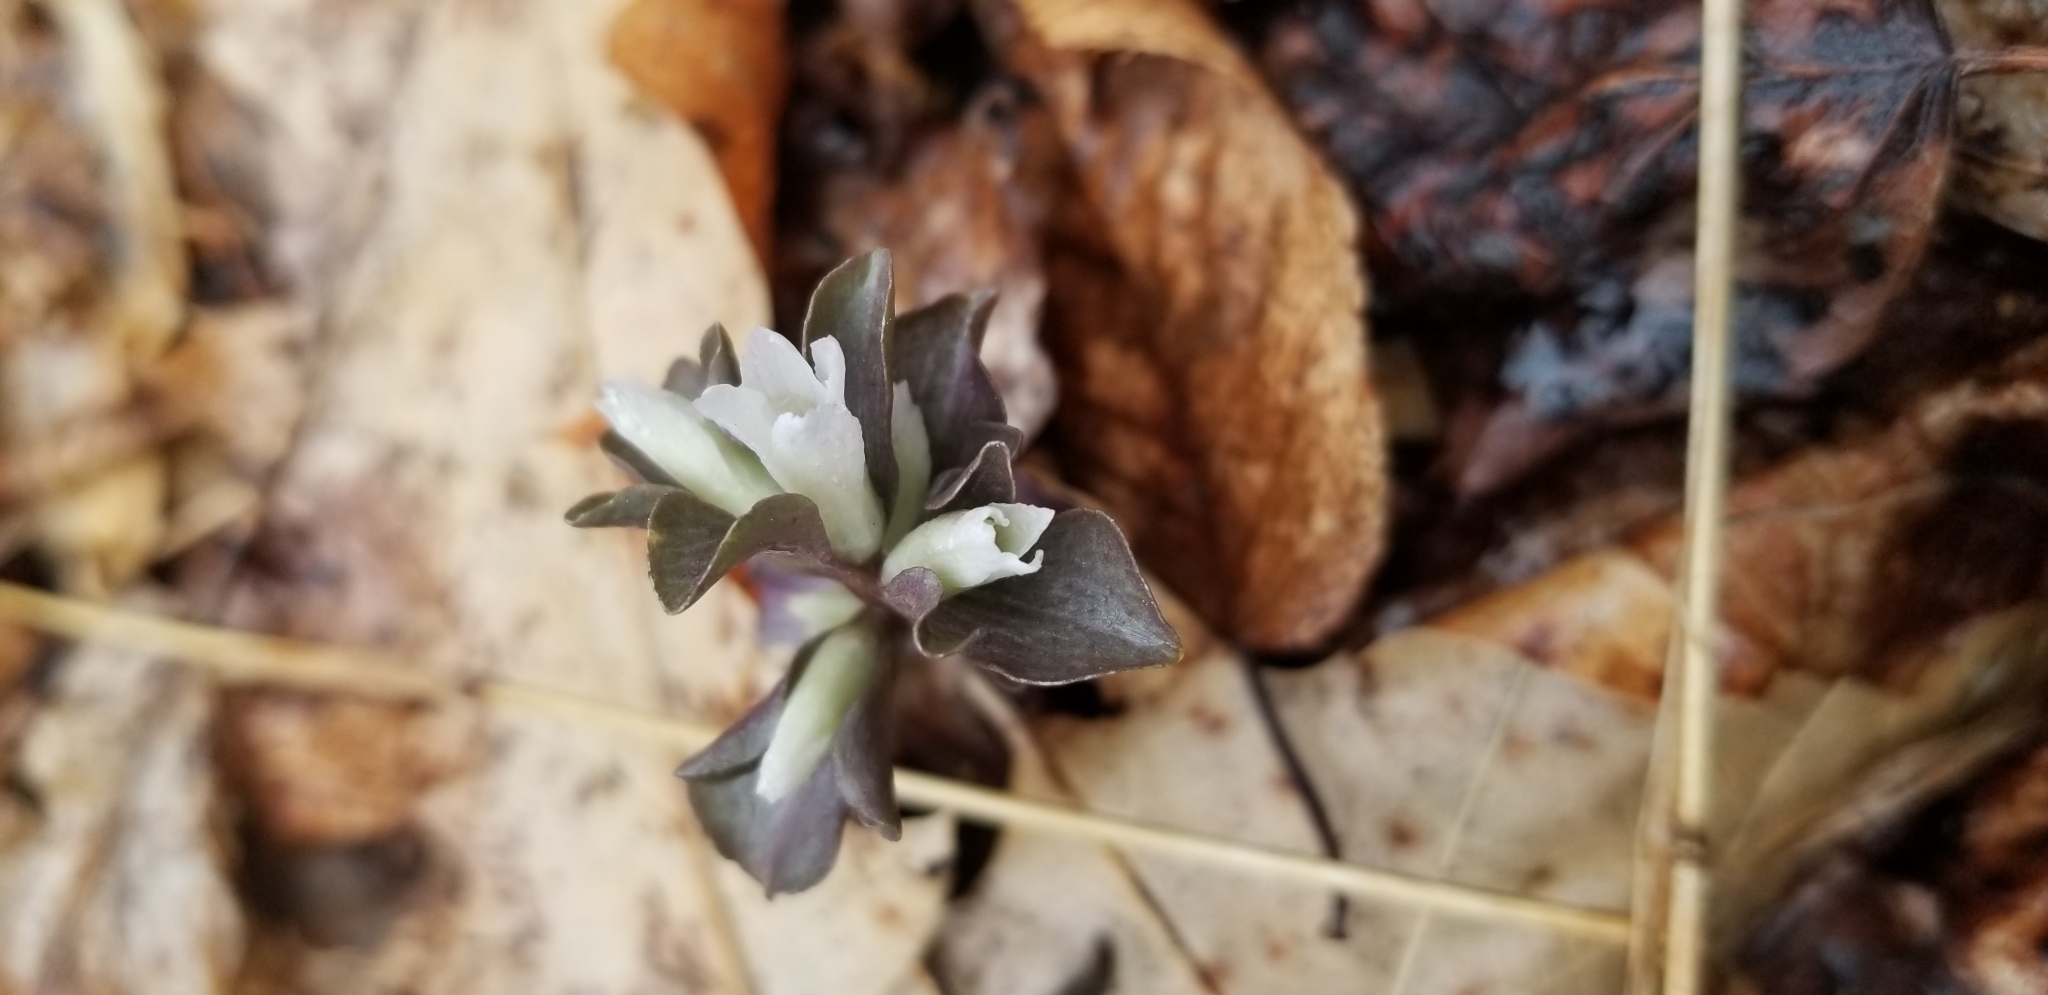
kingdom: Plantae
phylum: Tracheophyta
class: Magnoliopsida
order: Gentianales
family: Gentianaceae
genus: Obolaria
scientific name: Obolaria virginica
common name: Pennywort
